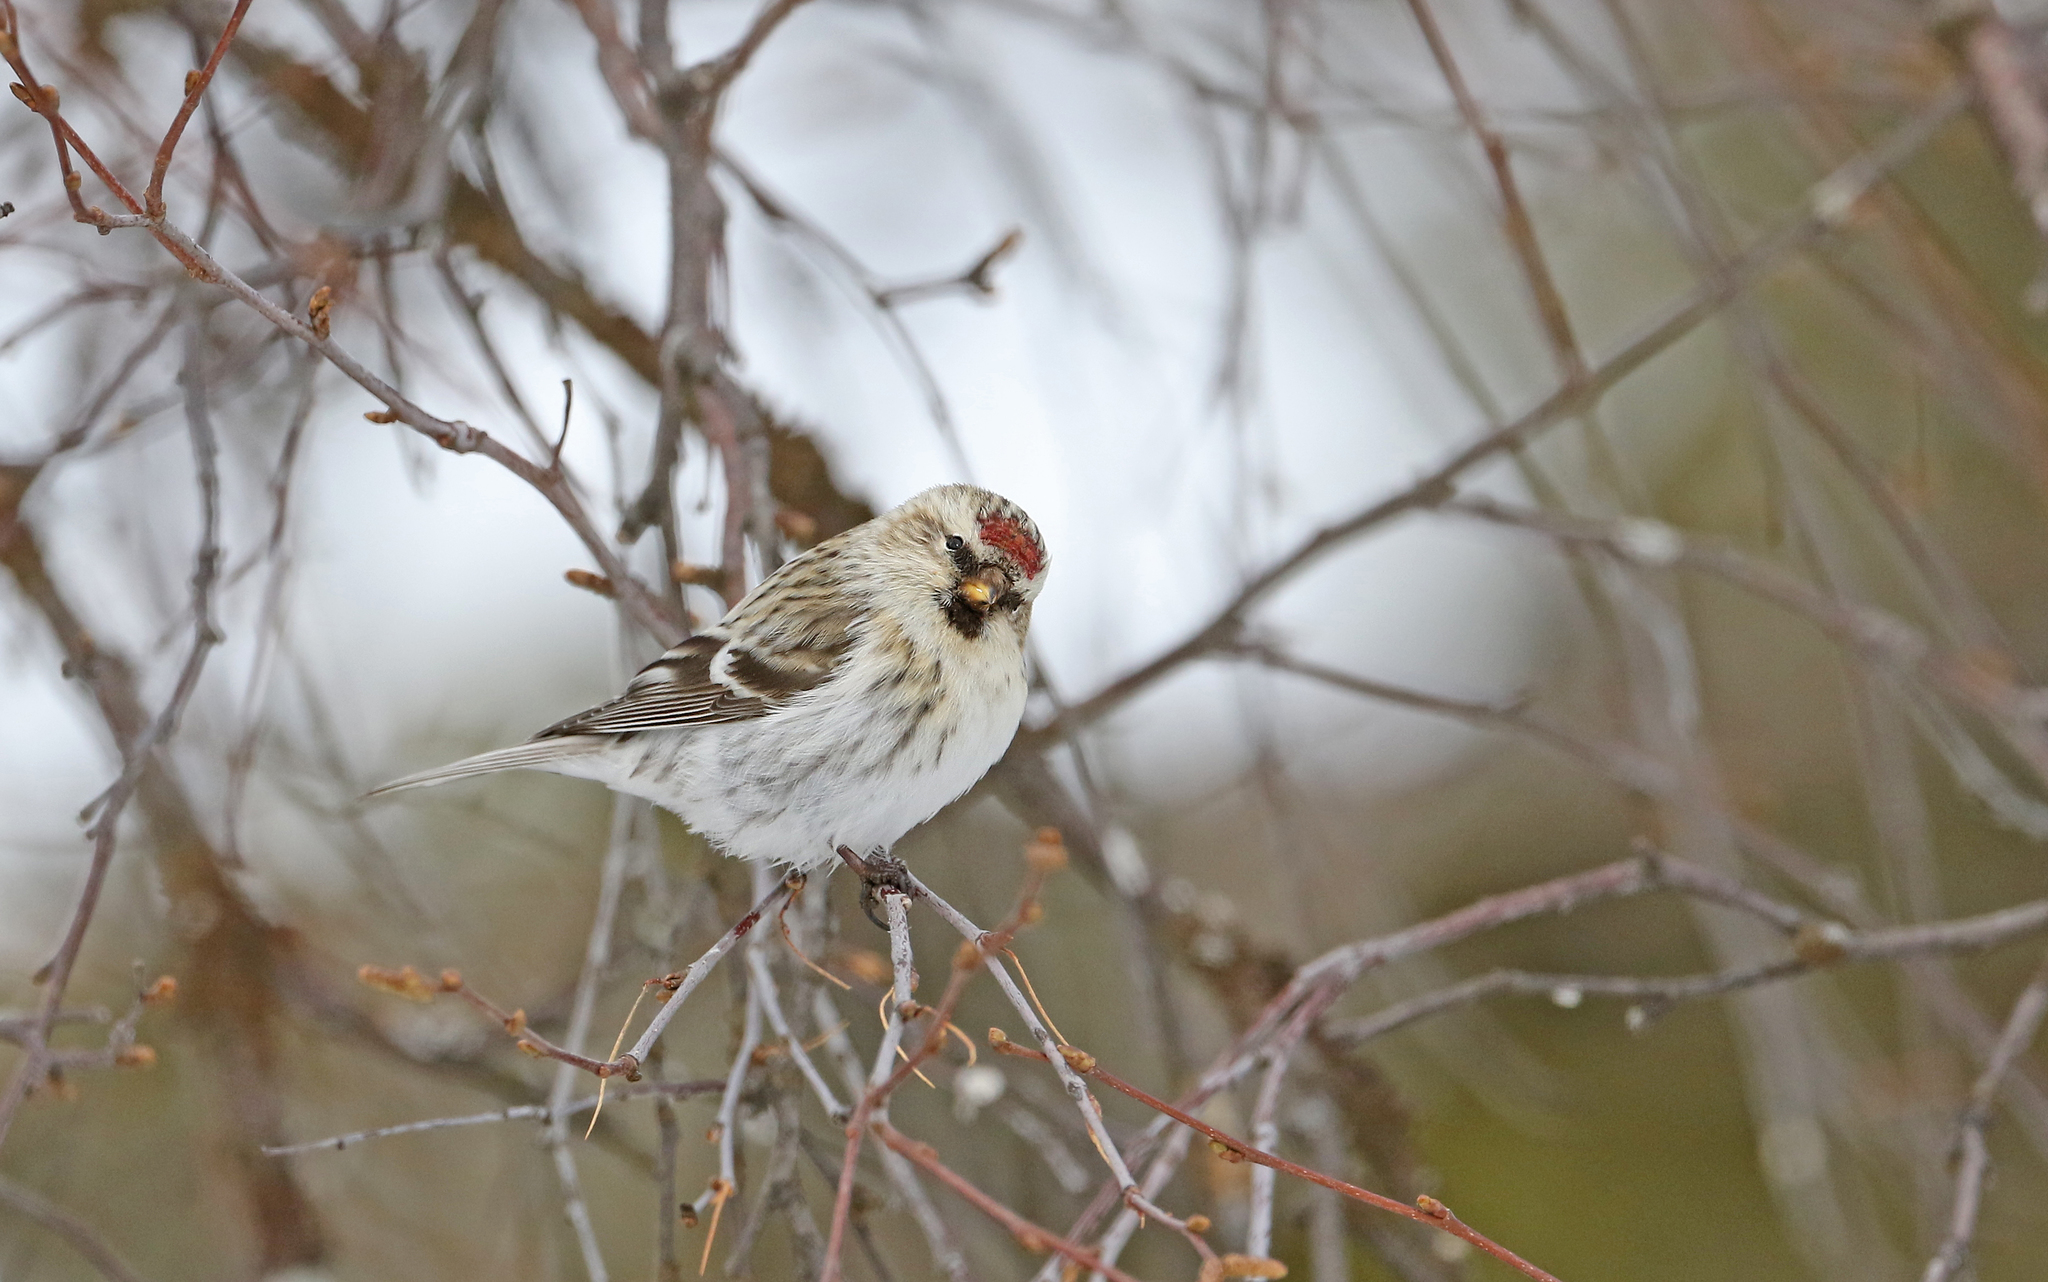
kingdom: Animalia
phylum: Chordata
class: Aves
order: Passeriformes
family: Fringillidae
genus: Acanthis
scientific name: Acanthis hornemanni
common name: Arctic redpoll
